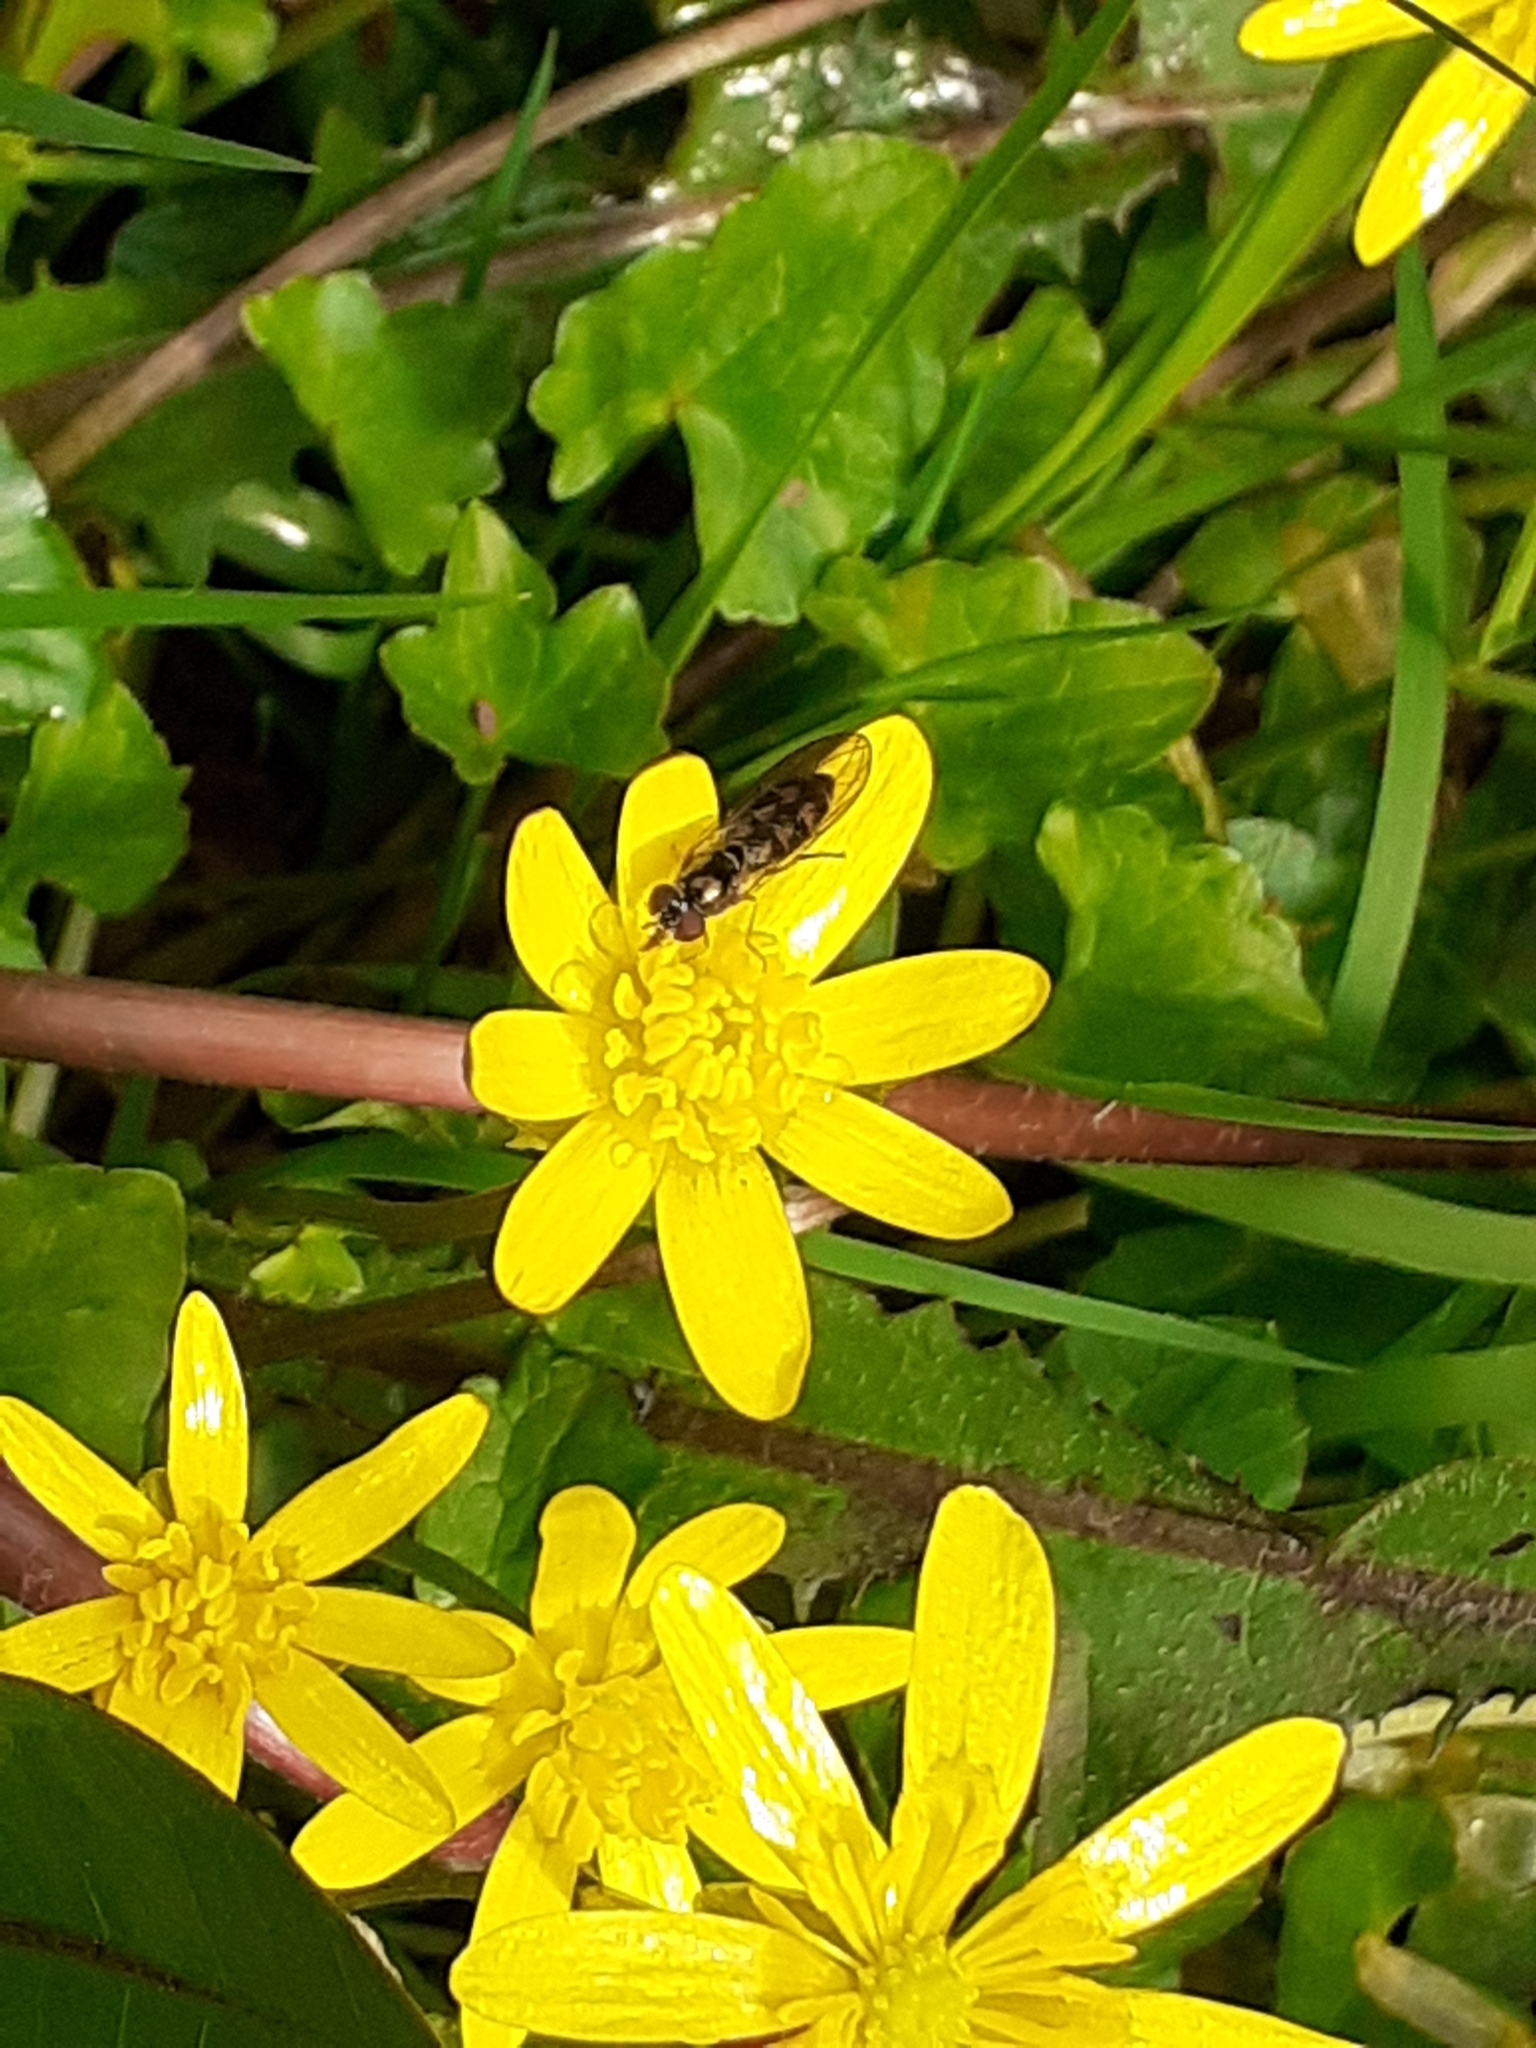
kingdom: Animalia
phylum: Arthropoda
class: Insecta
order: Diptera
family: Syrphidae
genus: Melanostoma
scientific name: Melanostoma mellina
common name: Hover fly
